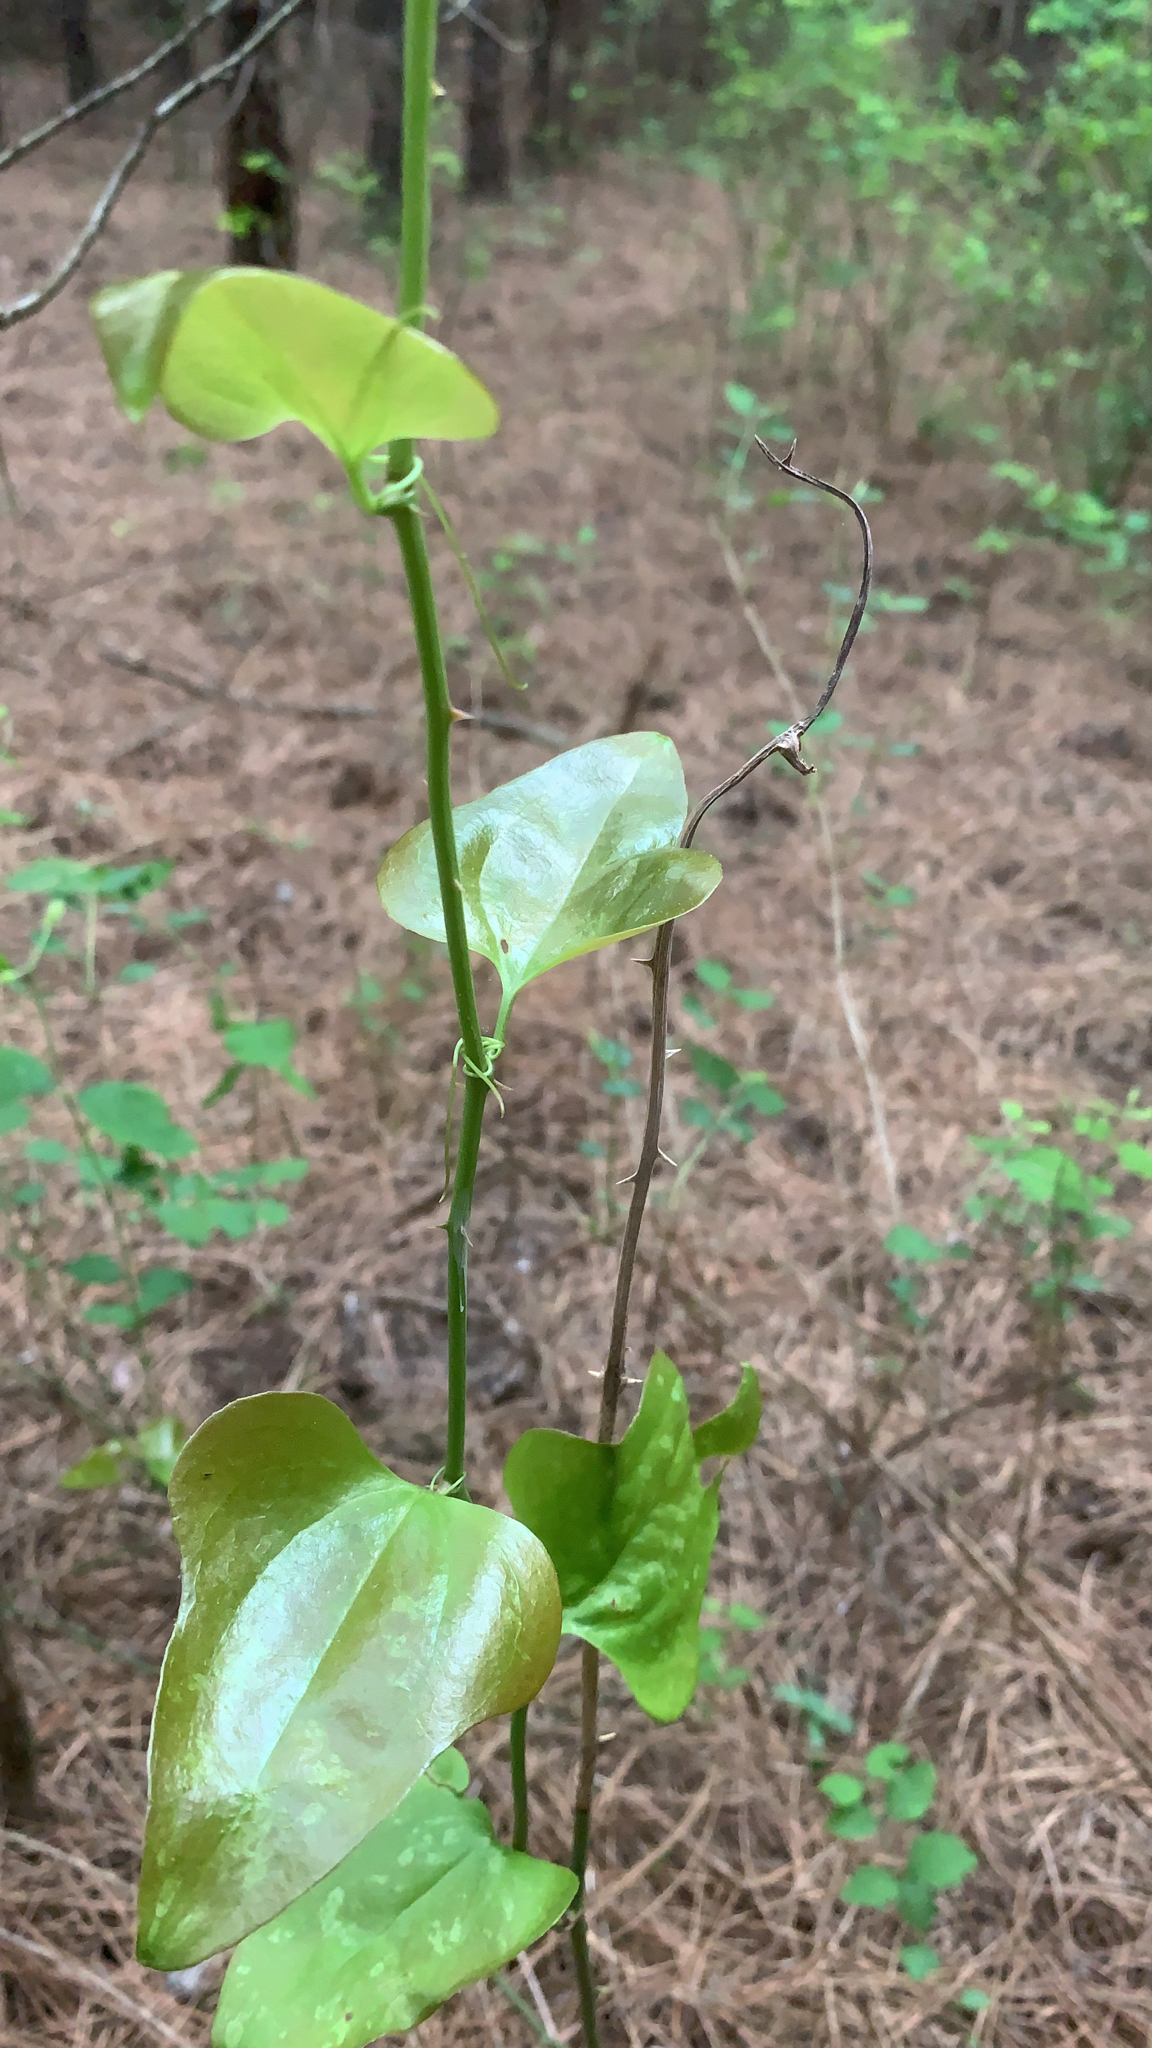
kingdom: Plantae
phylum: Tracheophyta
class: Liliopsida
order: Liliales
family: Smilacaceae
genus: Smilax
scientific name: Smilax bona-nox
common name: Catbrier
